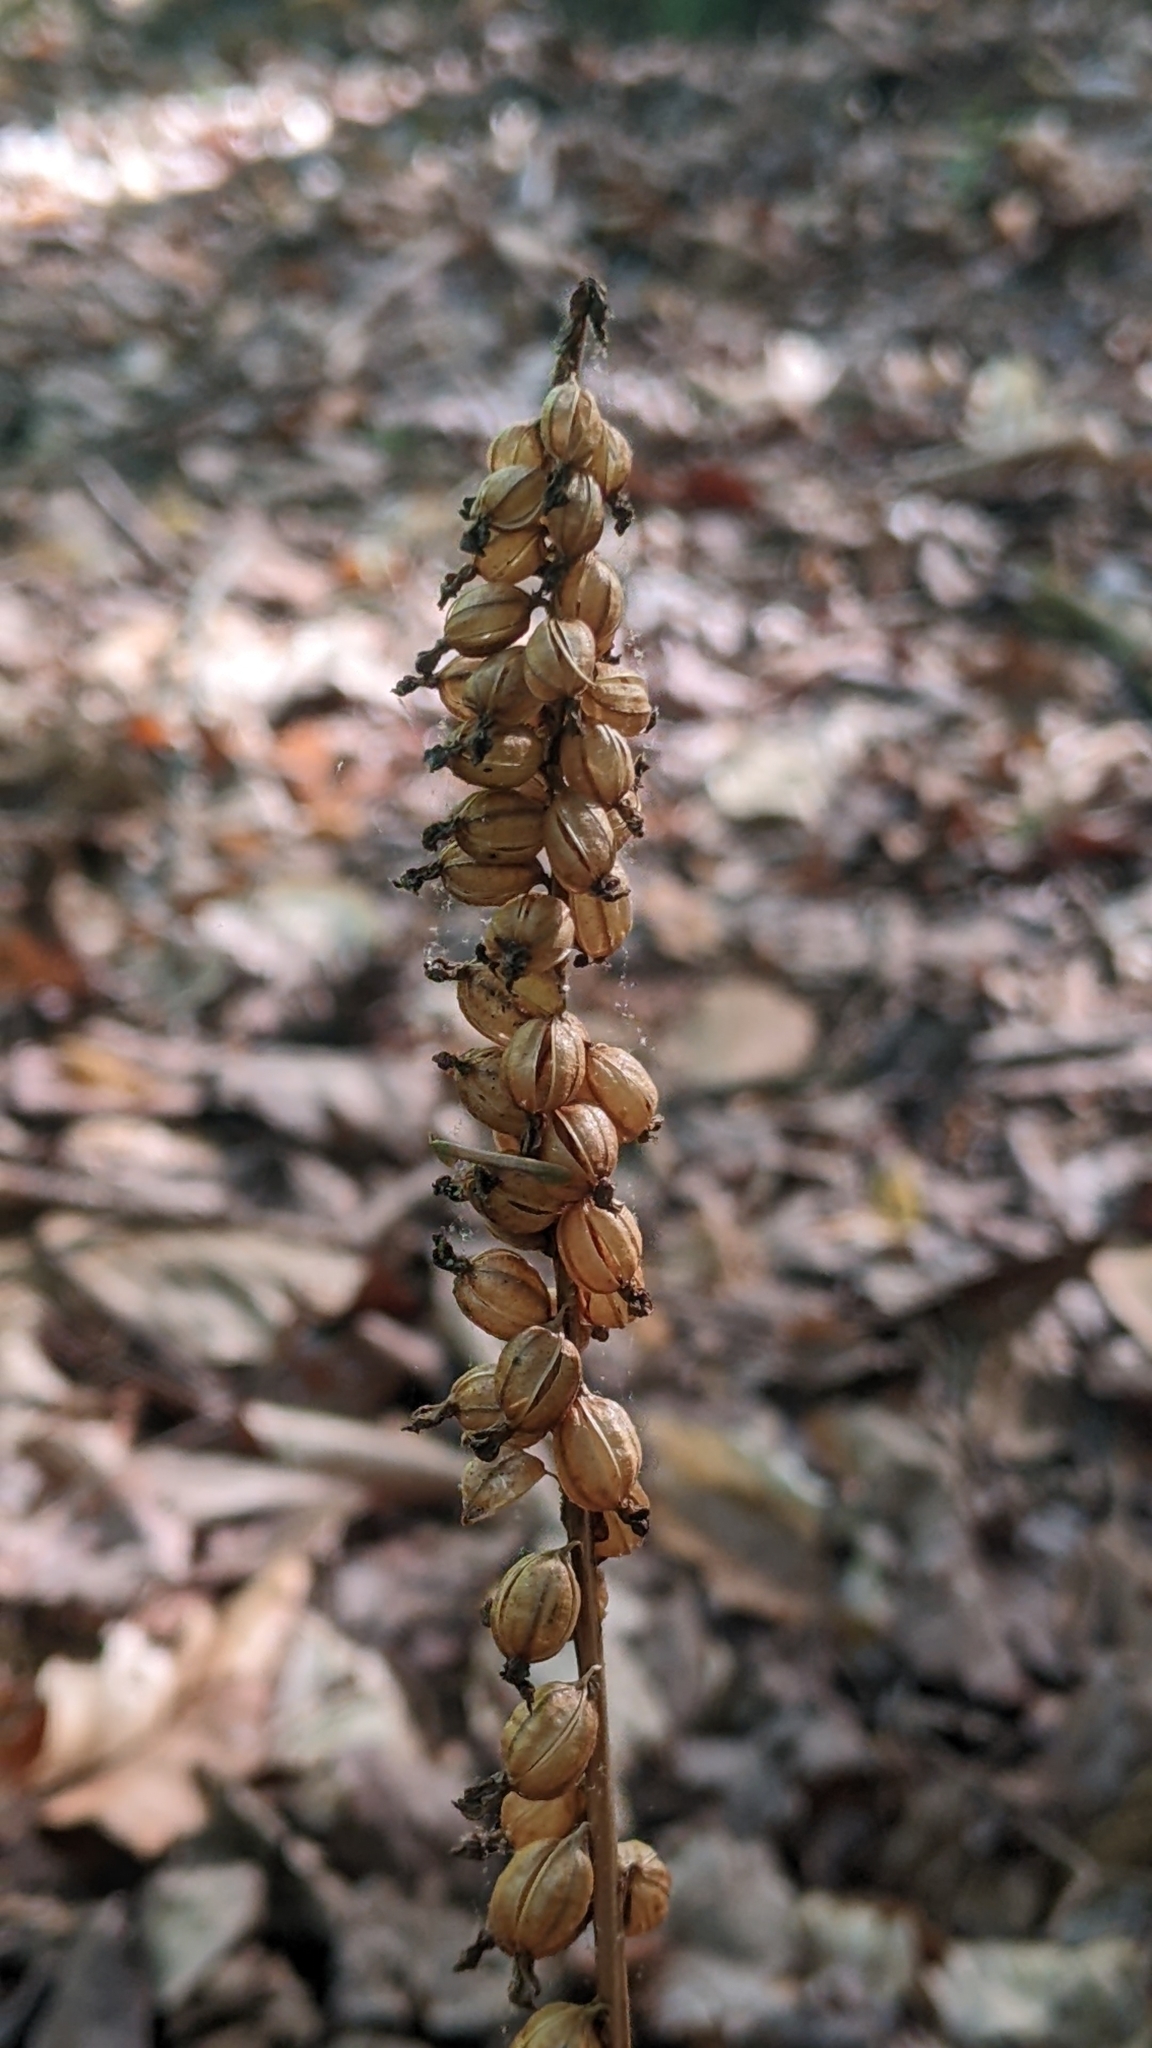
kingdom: Plantae
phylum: Tracheophyta
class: Liliopsida
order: Asparagales
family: Orchidaceae
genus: Goodyera
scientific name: Goodyera pubescens
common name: Downy rattlesnake-plantain
